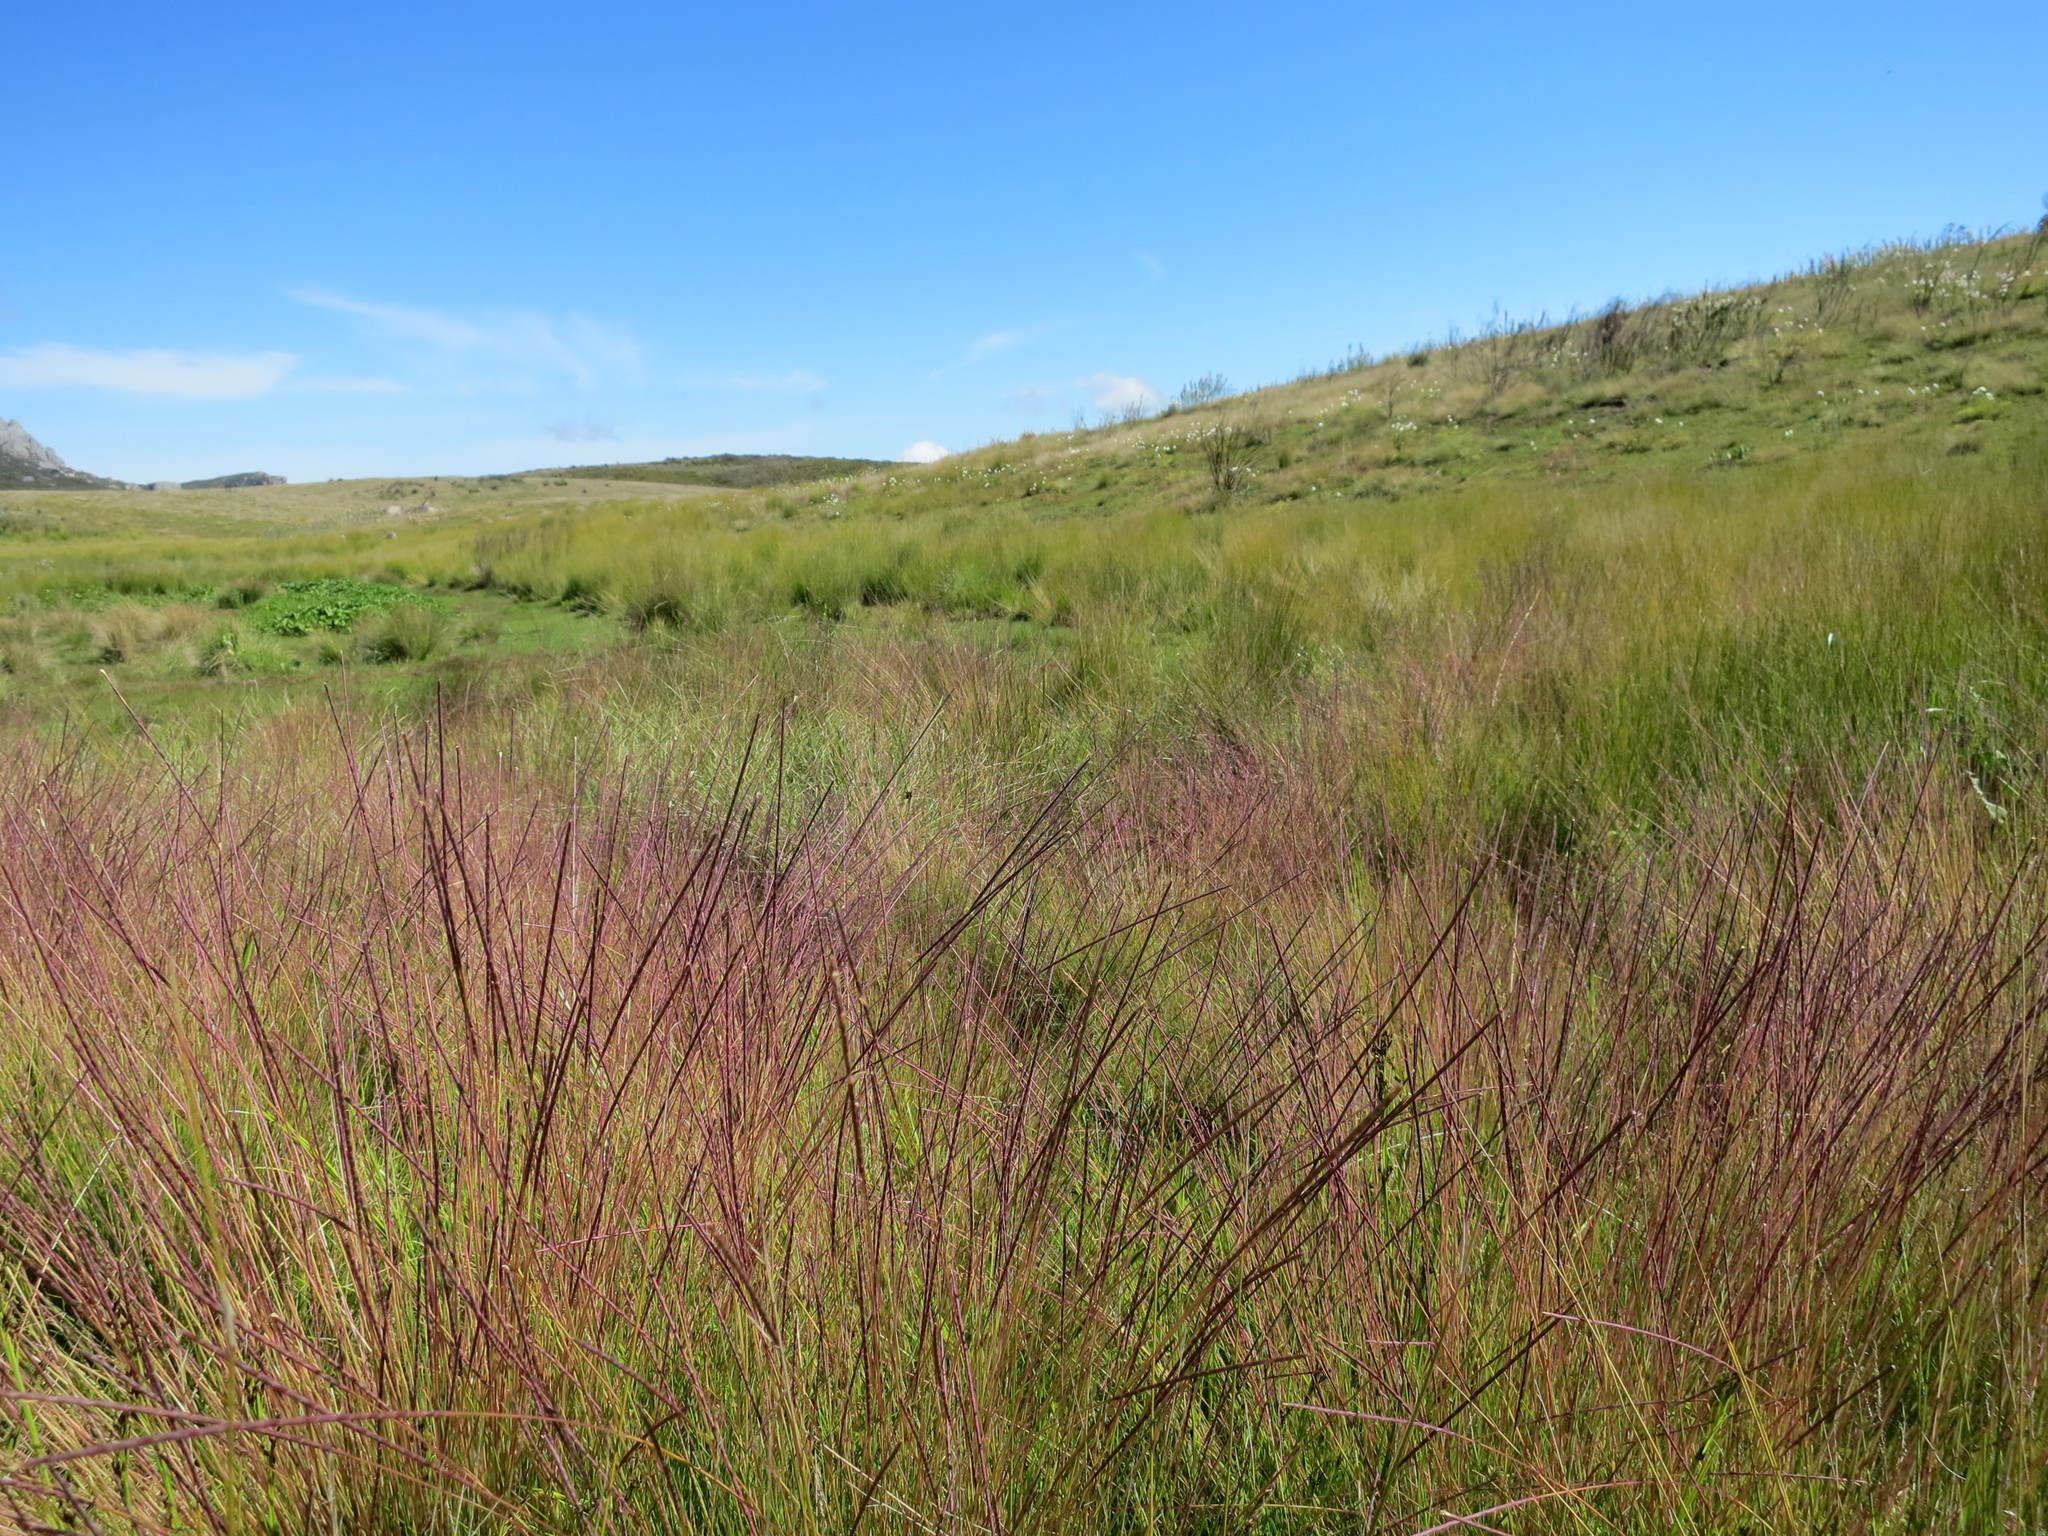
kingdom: Plantae
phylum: Tracheophyta
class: Liliopsida
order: Poales
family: Poaceae
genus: Rhytachne
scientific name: Rhytachne rottboellioides
